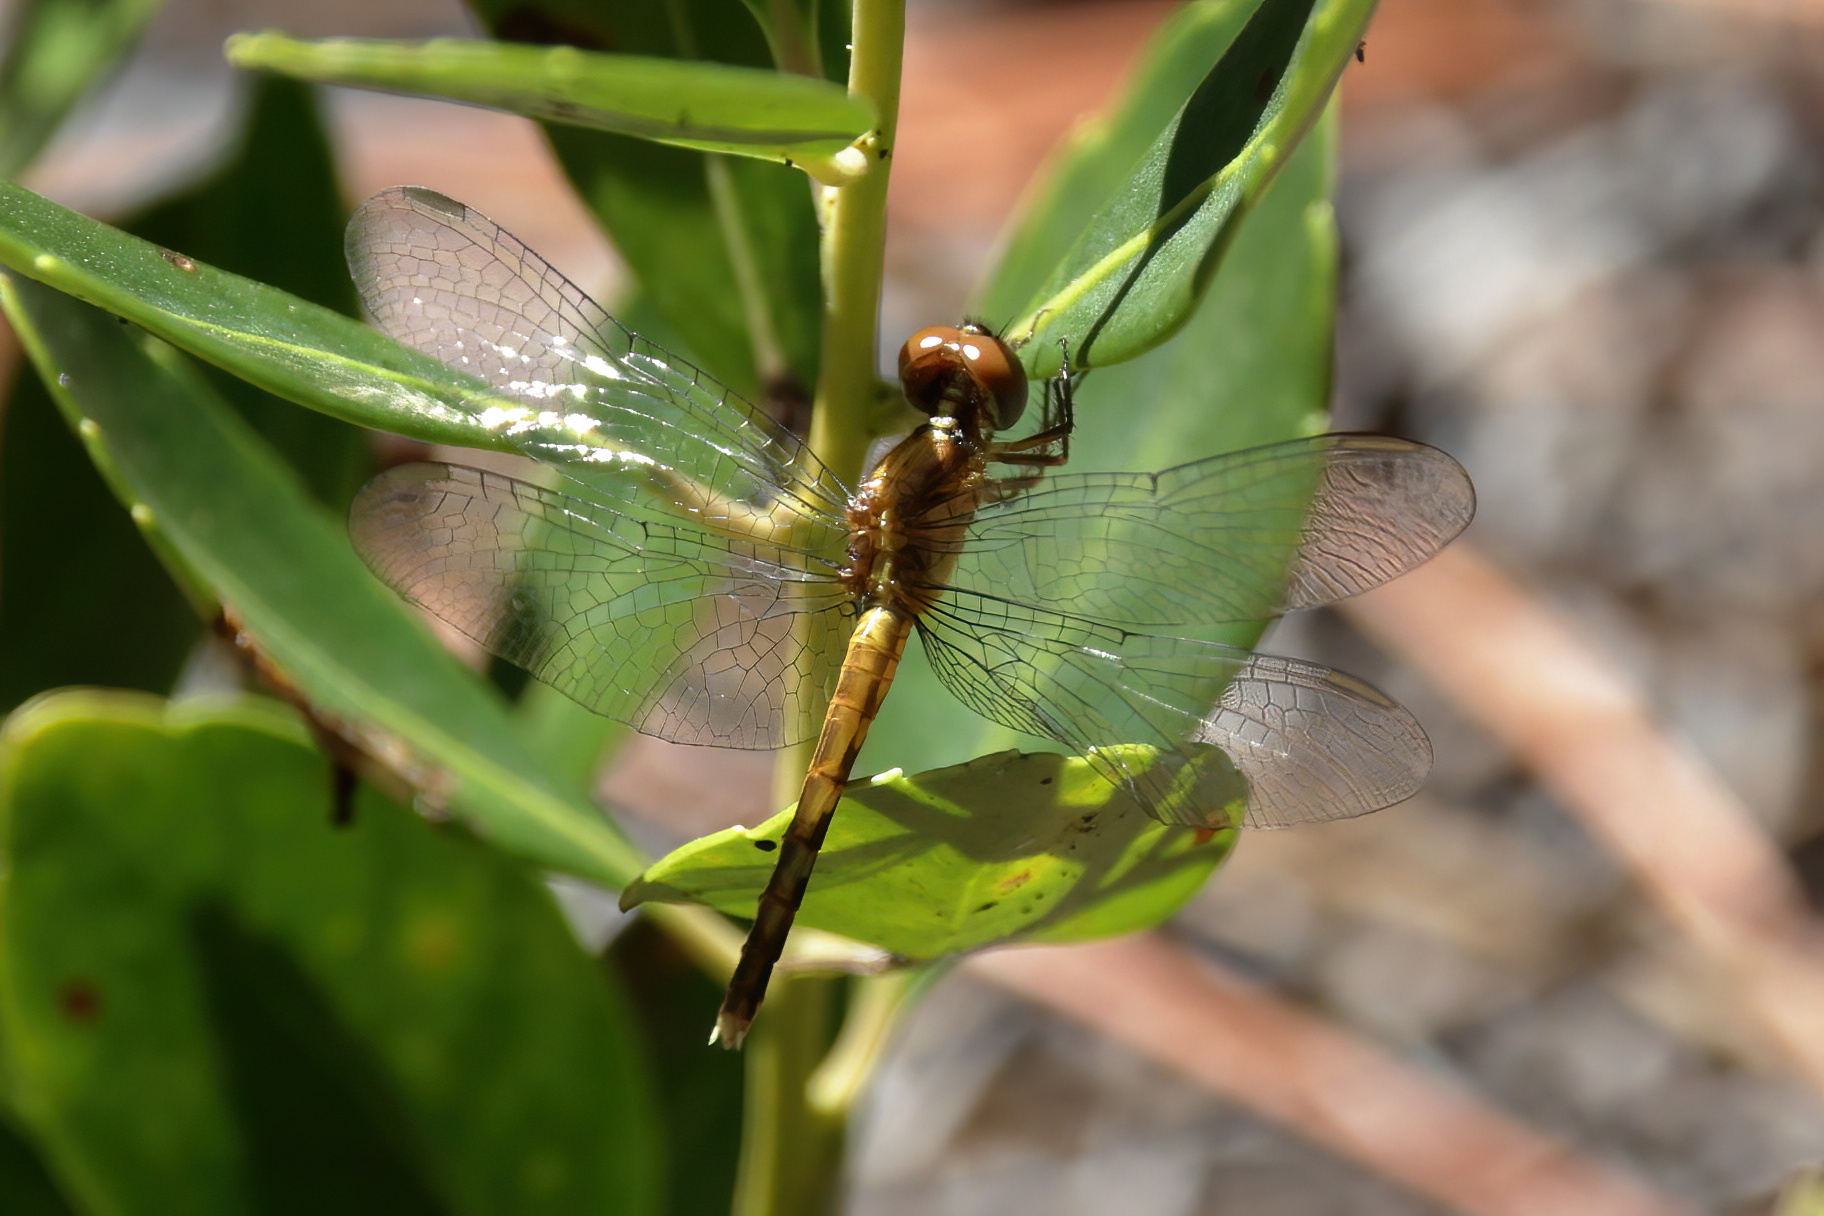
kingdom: Animalia
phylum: Arthropoda
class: Insecta
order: Odonata
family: Libellulidae
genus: Erythrodiplax
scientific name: Erythrodiplax minuscula
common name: Little blue dragonlet
